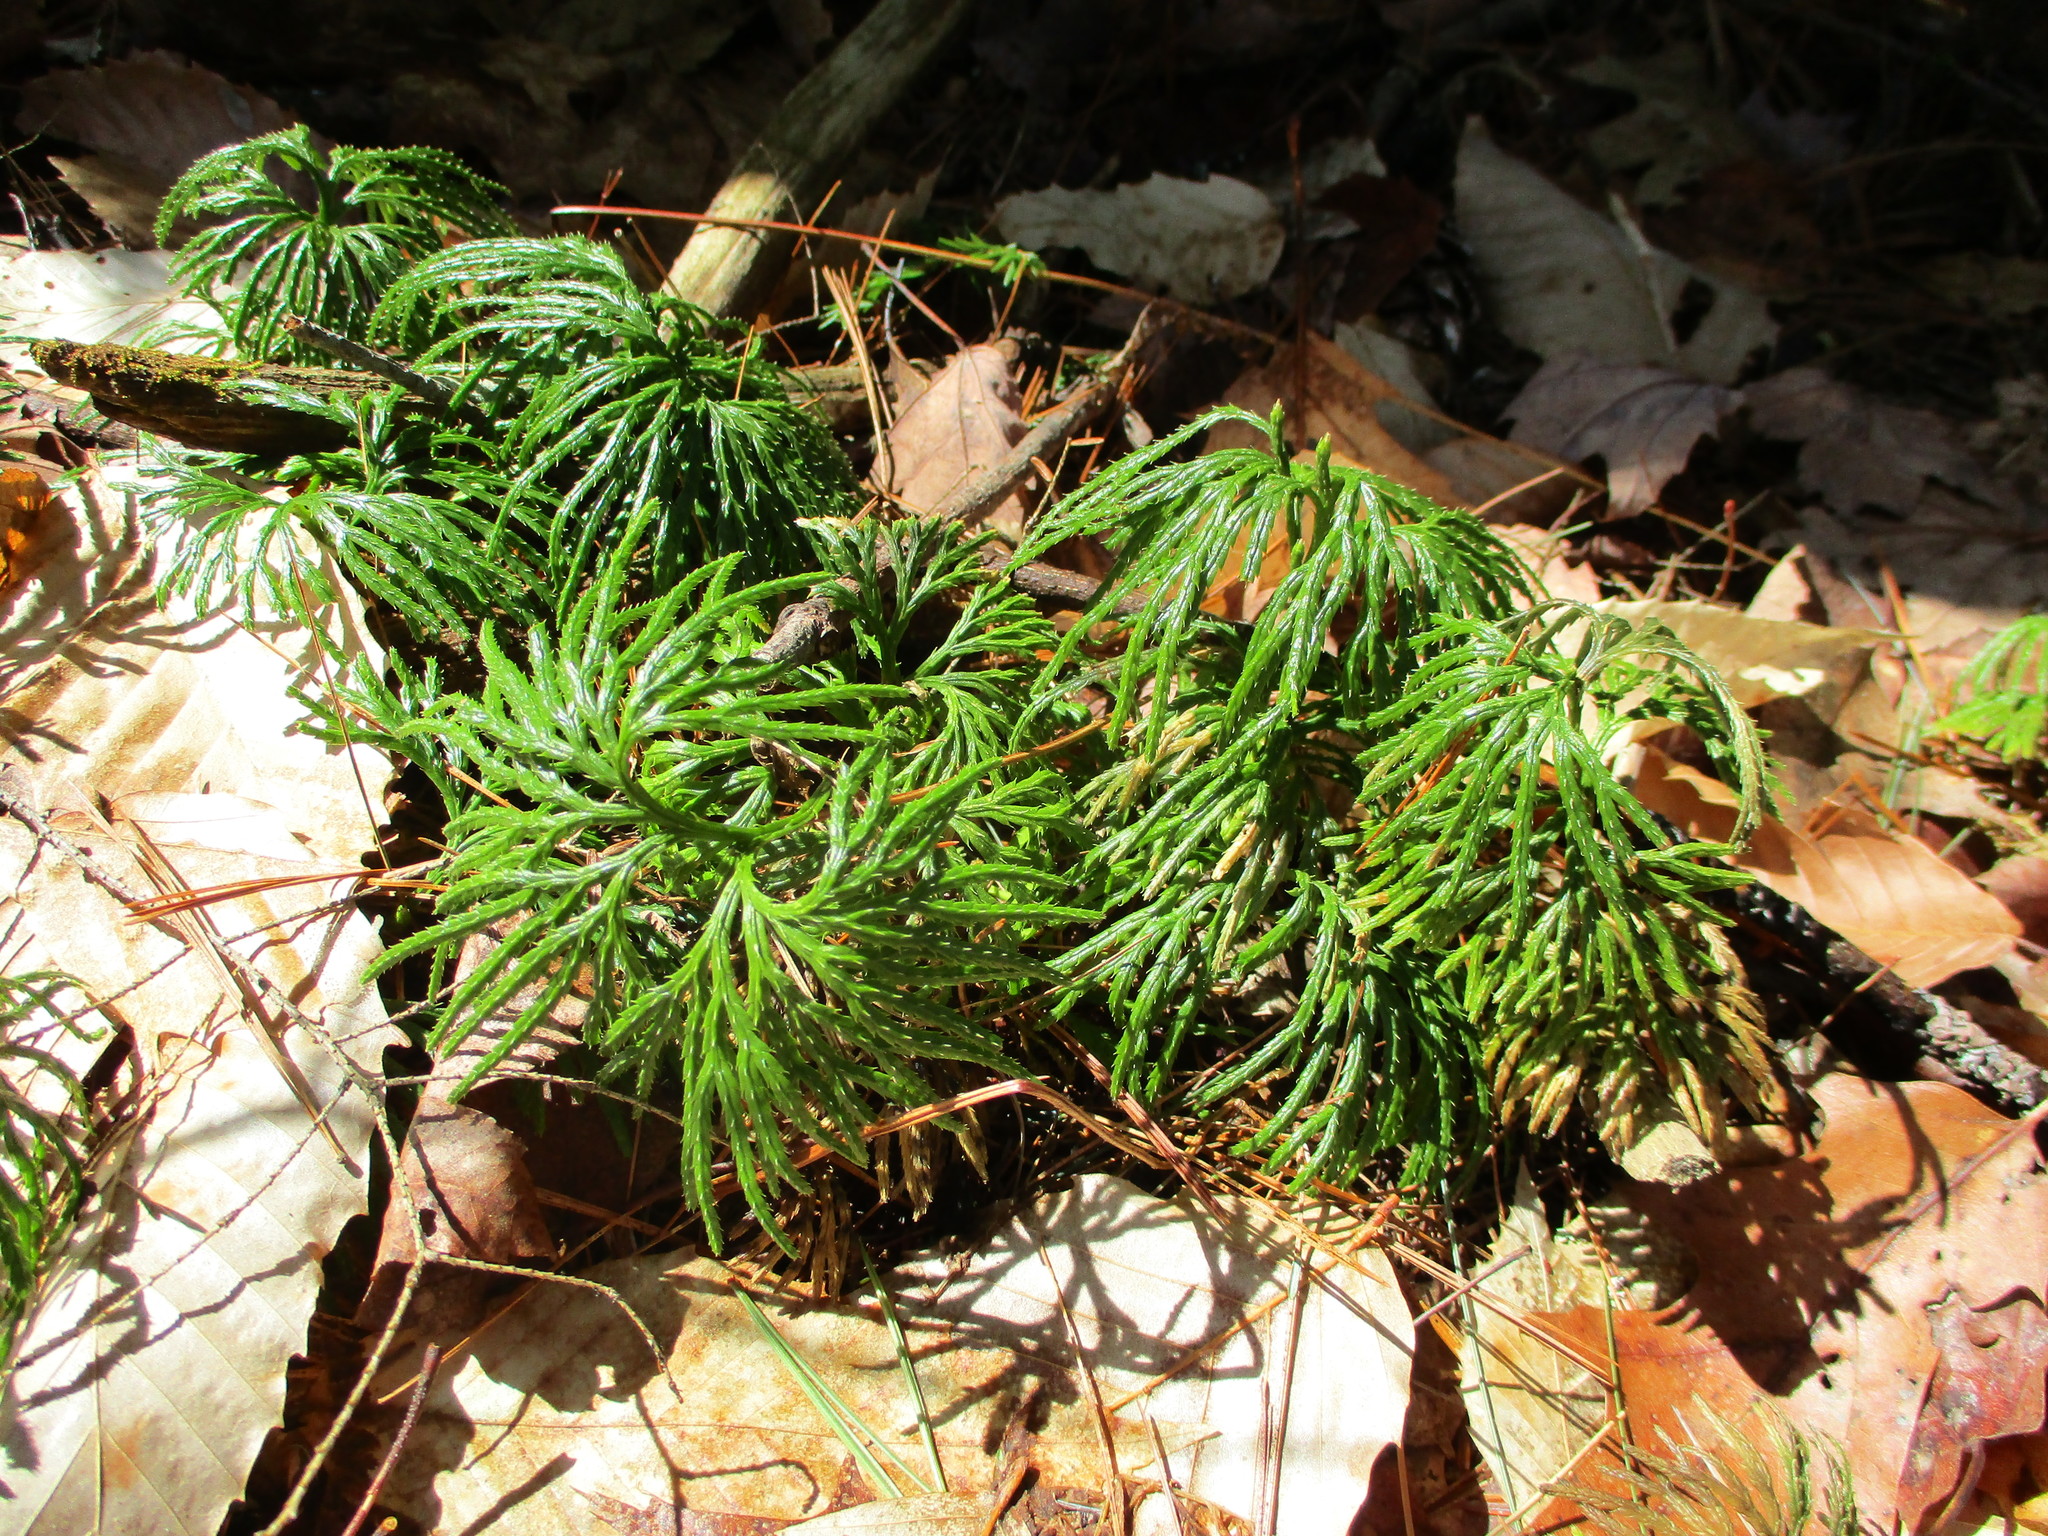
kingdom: Plantae
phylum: Tracheophyta
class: Lycopodiopsida
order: Lycopodiales
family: Lycopodiaceae
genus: Diphasiastrum
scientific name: Diphasiastrum digitatum
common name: Southern running-pine
